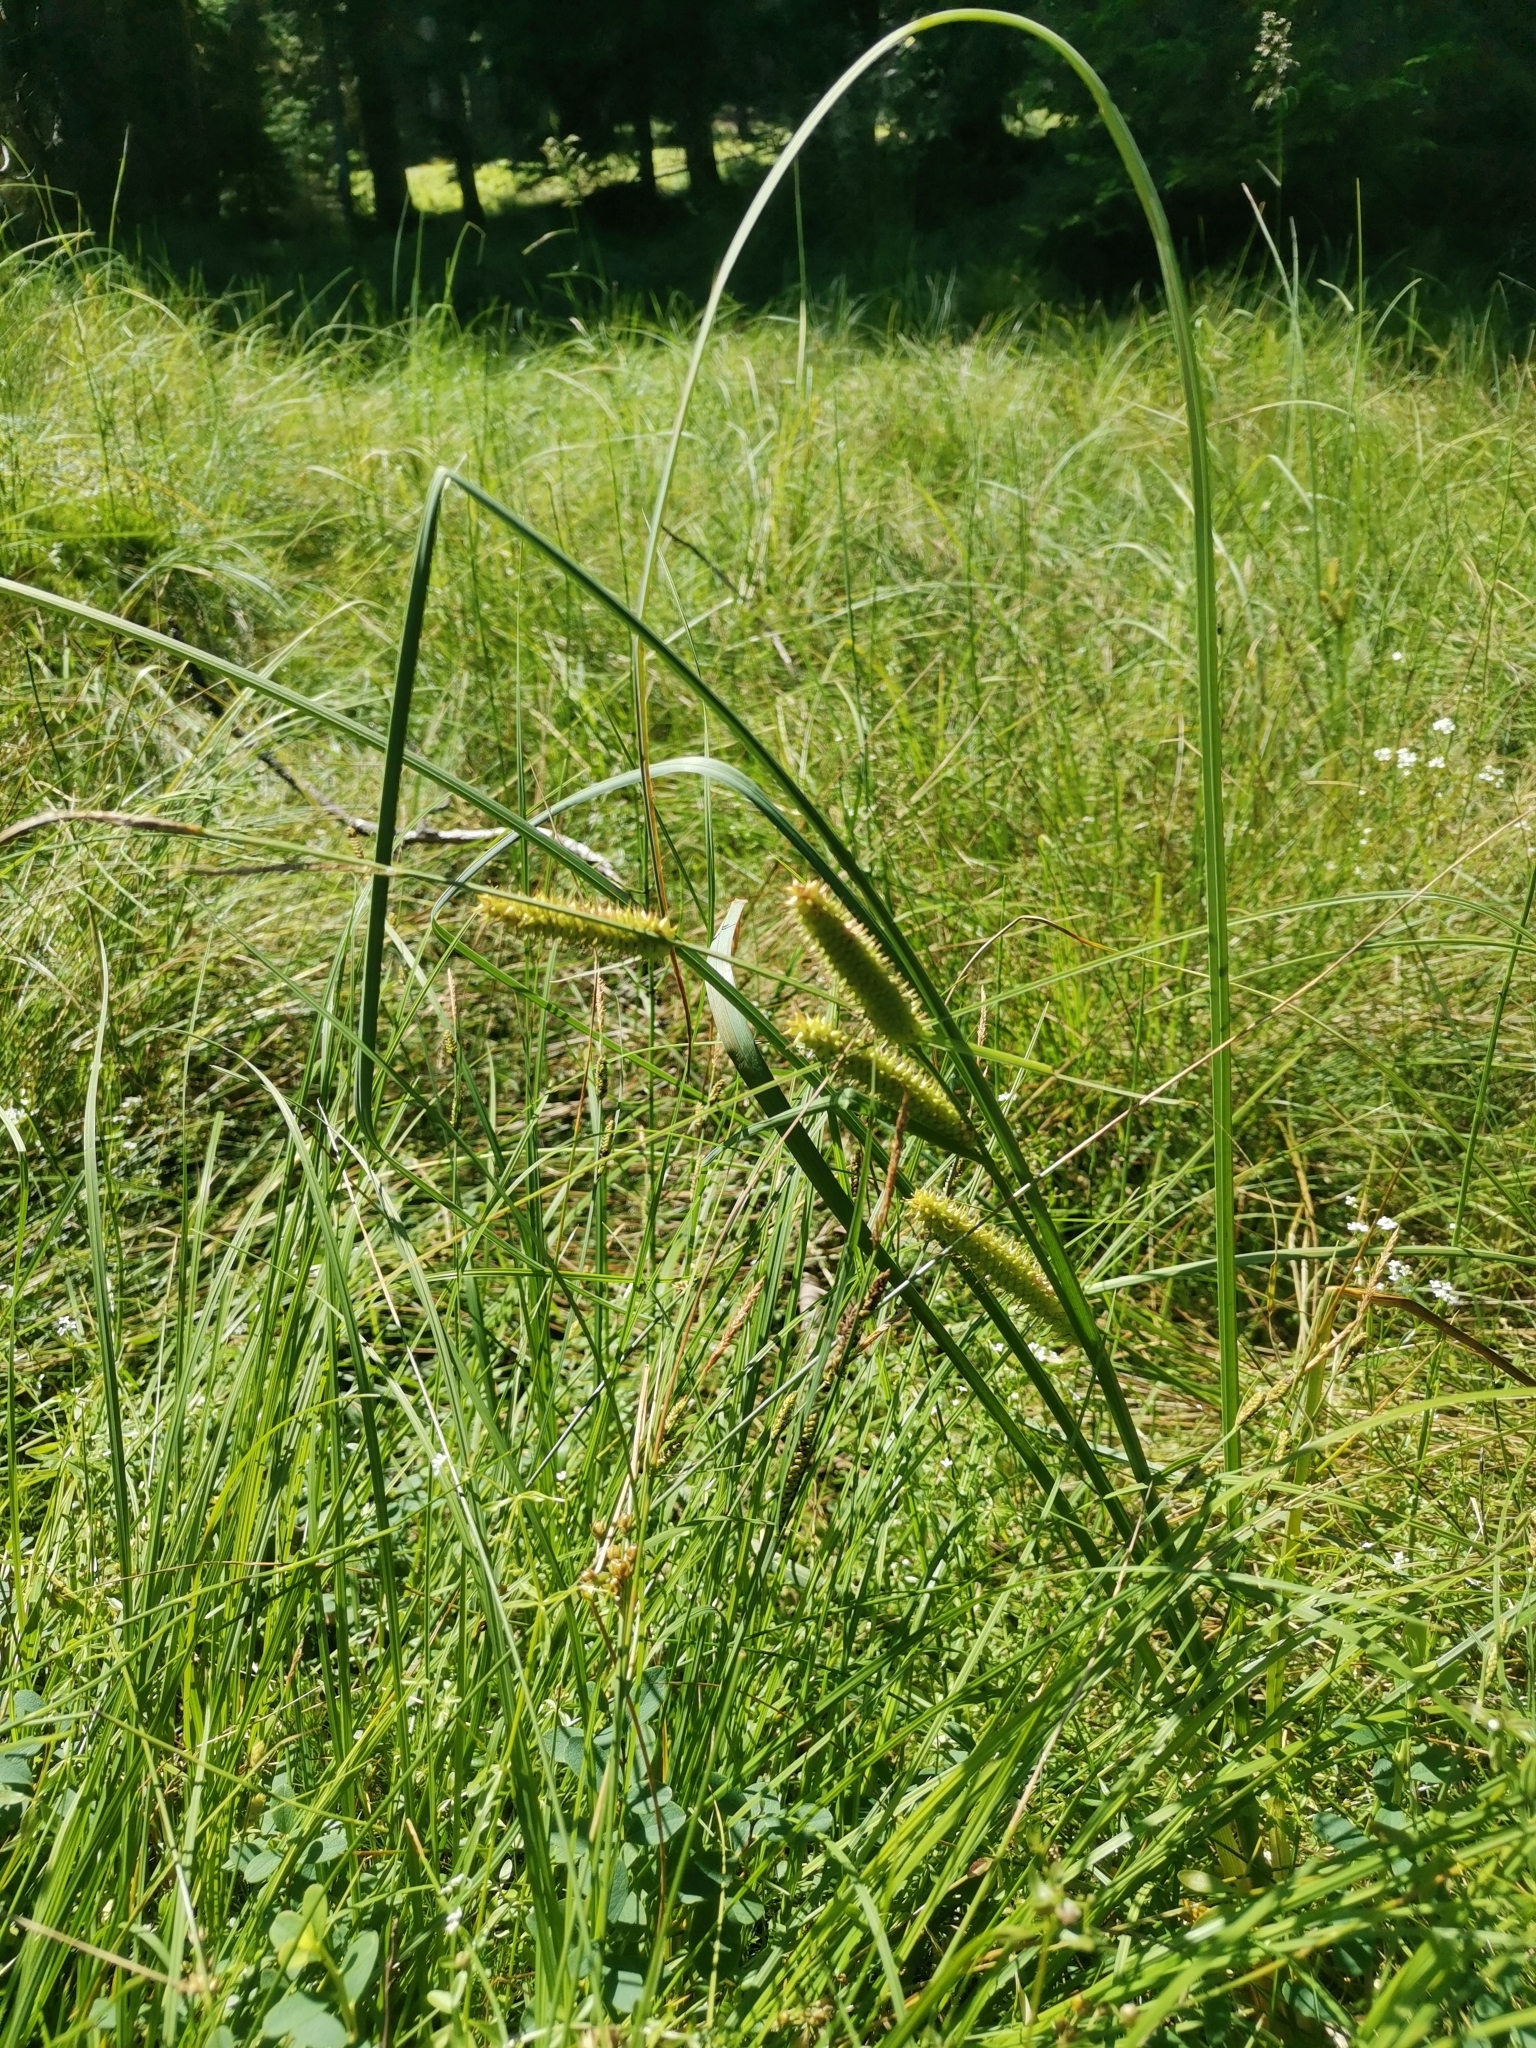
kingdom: Plantae
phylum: Tracheophyta
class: Liliopsida
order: Poales
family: Cyperaceae
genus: Carex
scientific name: Carex rostrata
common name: Bottle sedge
